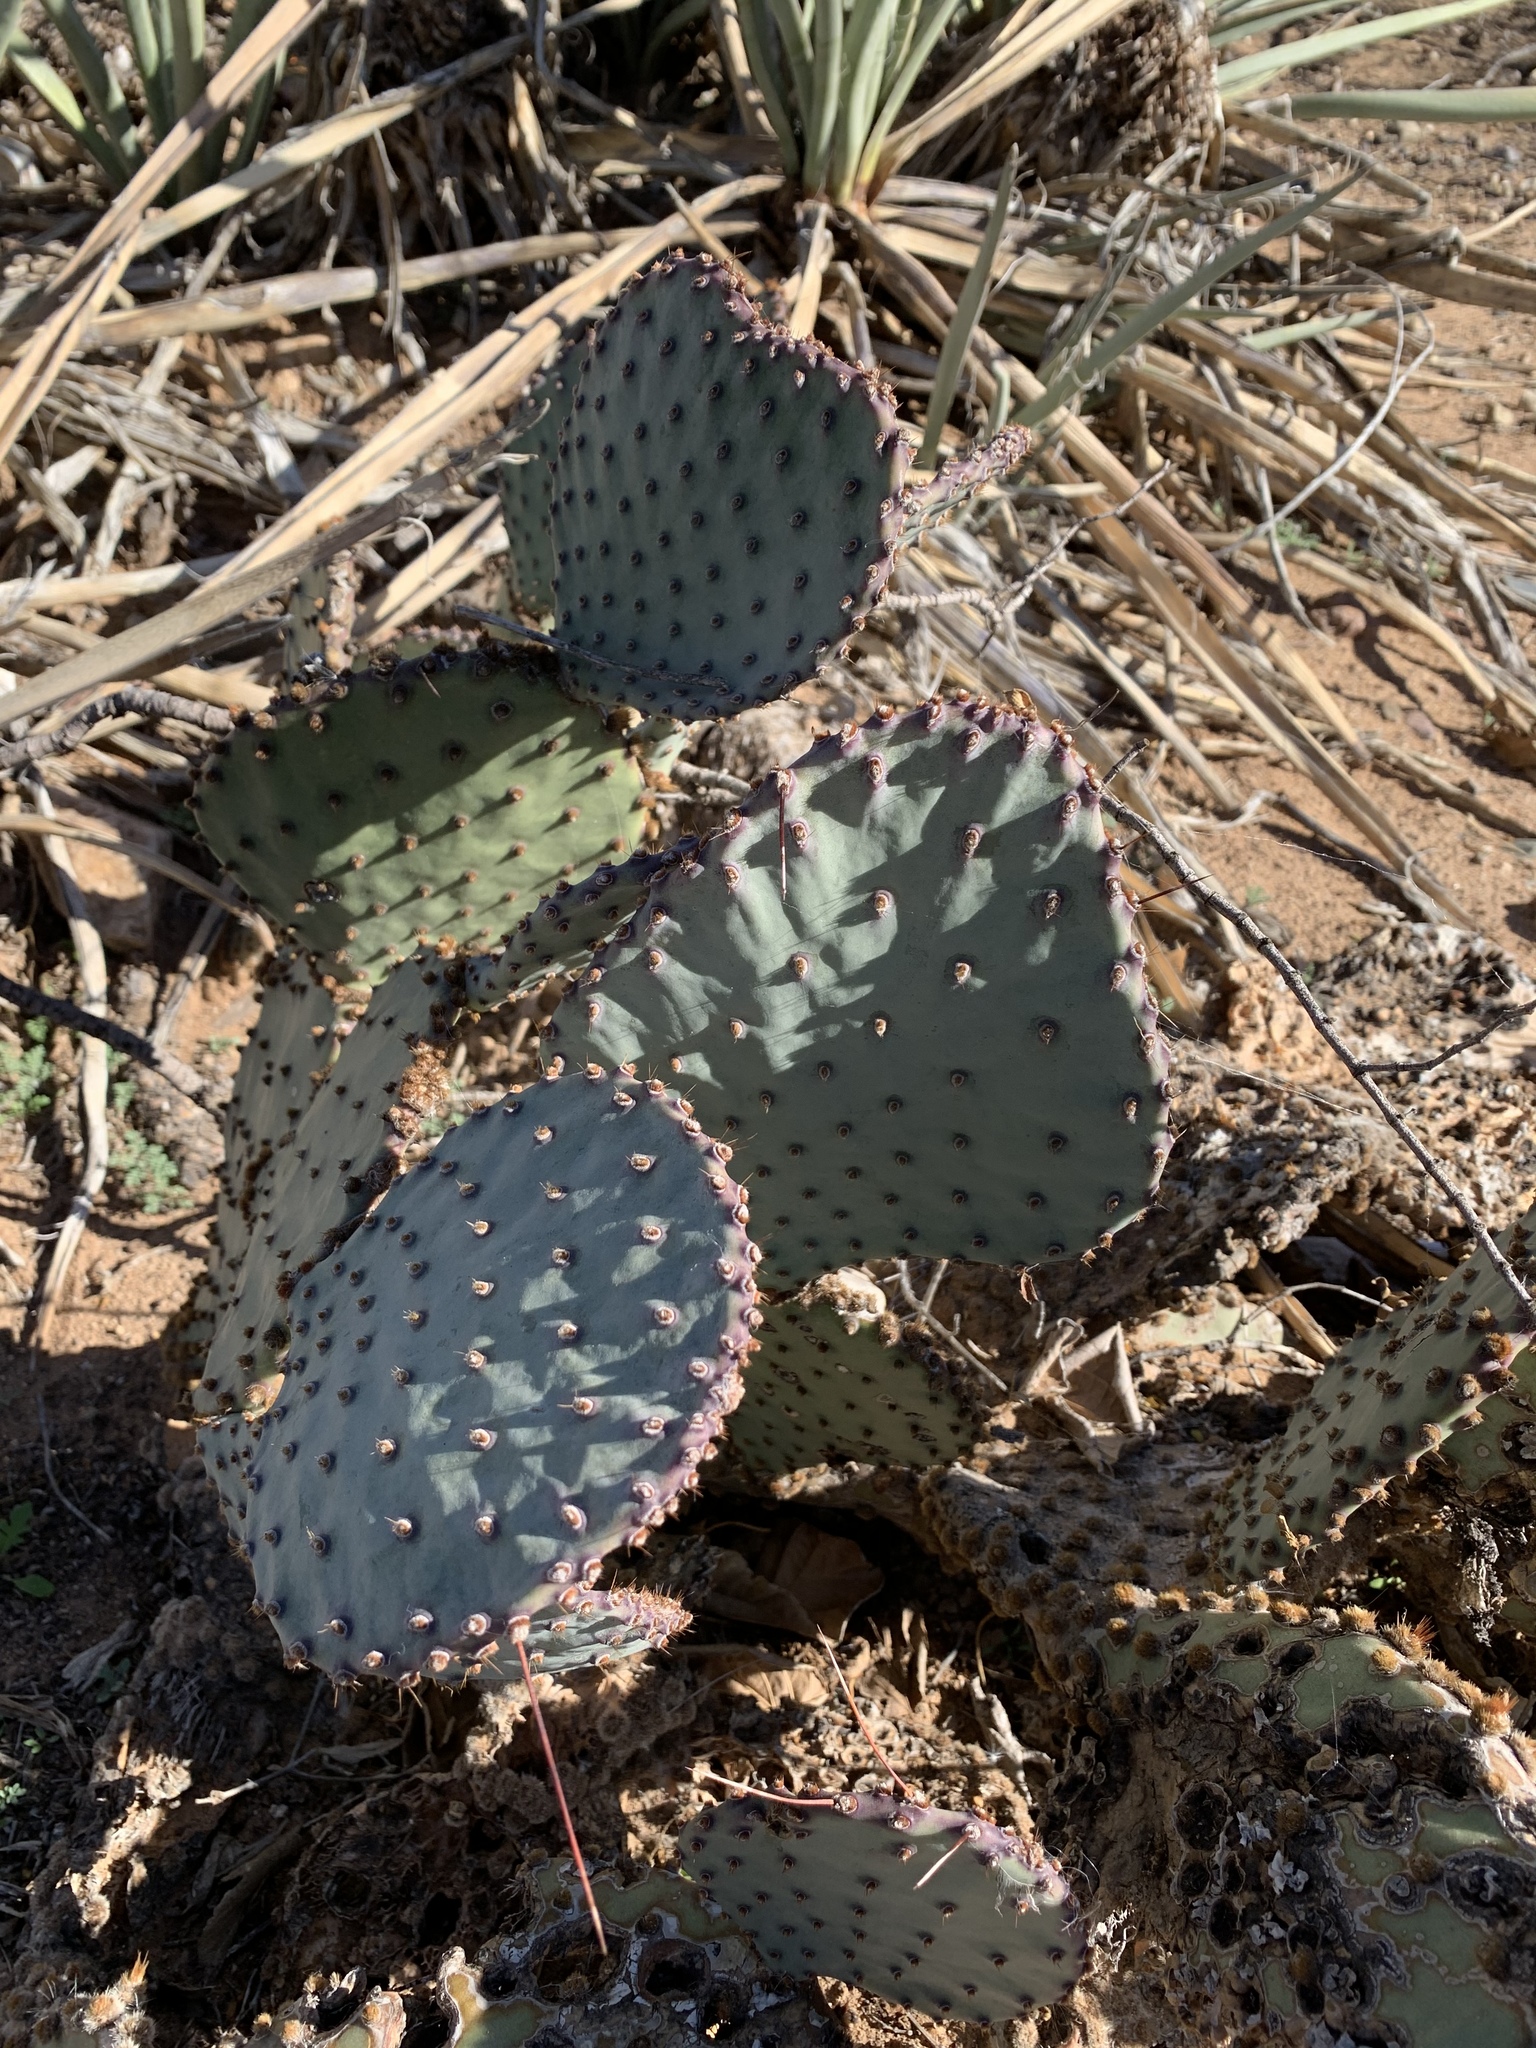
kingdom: Plantae
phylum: Tracheophyta
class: Magnoliopsida
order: Caryophyllales
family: Cactaceae
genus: Opuntia
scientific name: Opuntia macrocentra
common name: Purple prickly-pear
